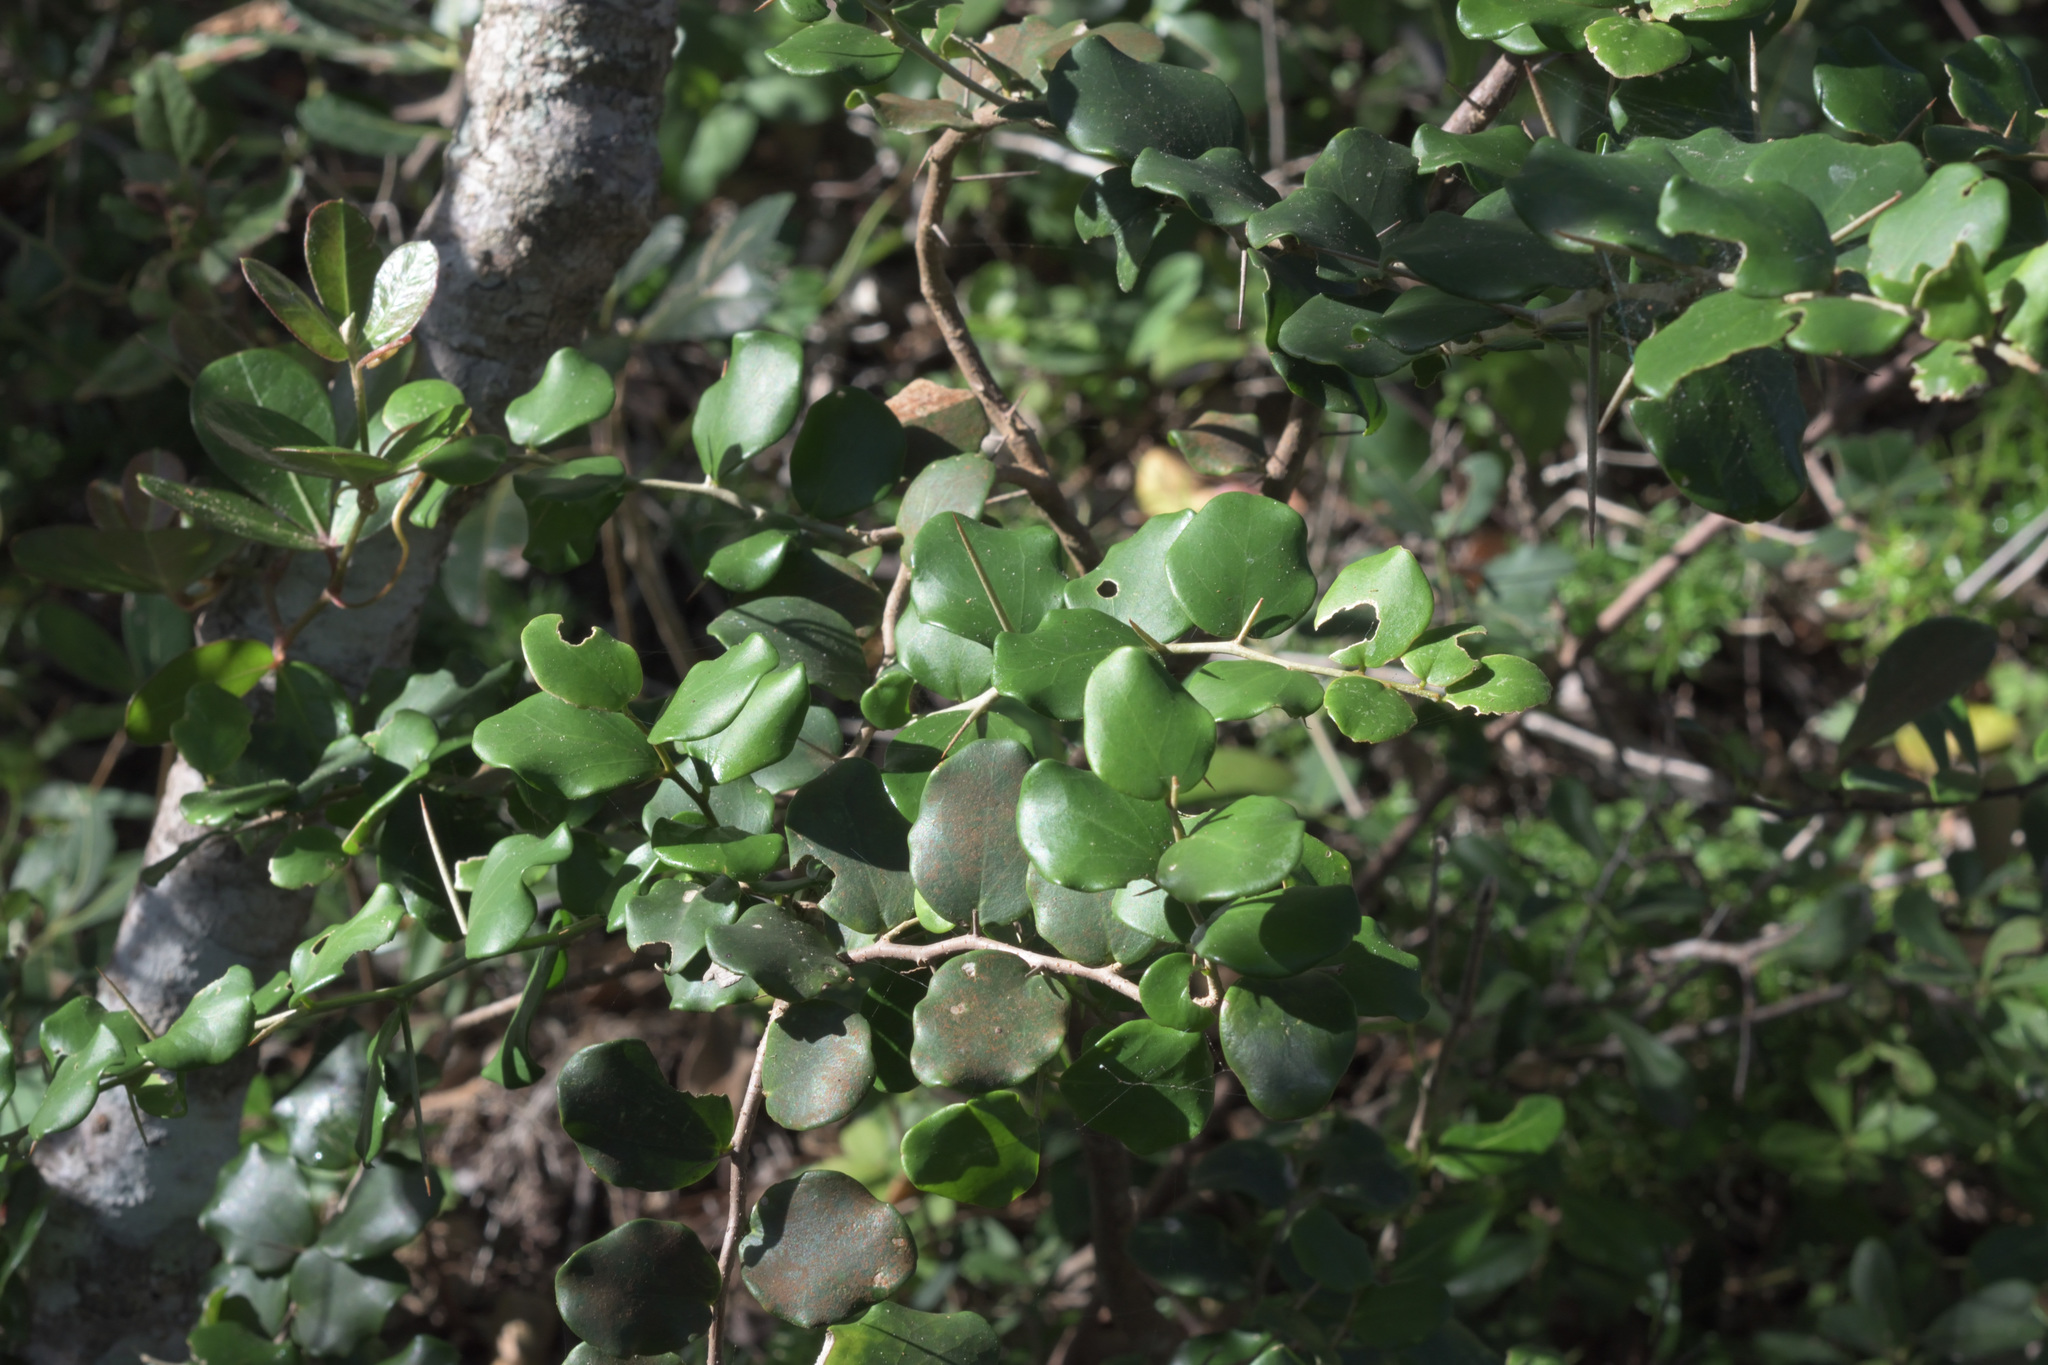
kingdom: Plantae
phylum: Tracheophyta
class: Magnoliopsida
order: Malpighiales
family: Salicaceae
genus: Dovyalis
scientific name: Dovyalis rotundifolia
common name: Dune sourberry
